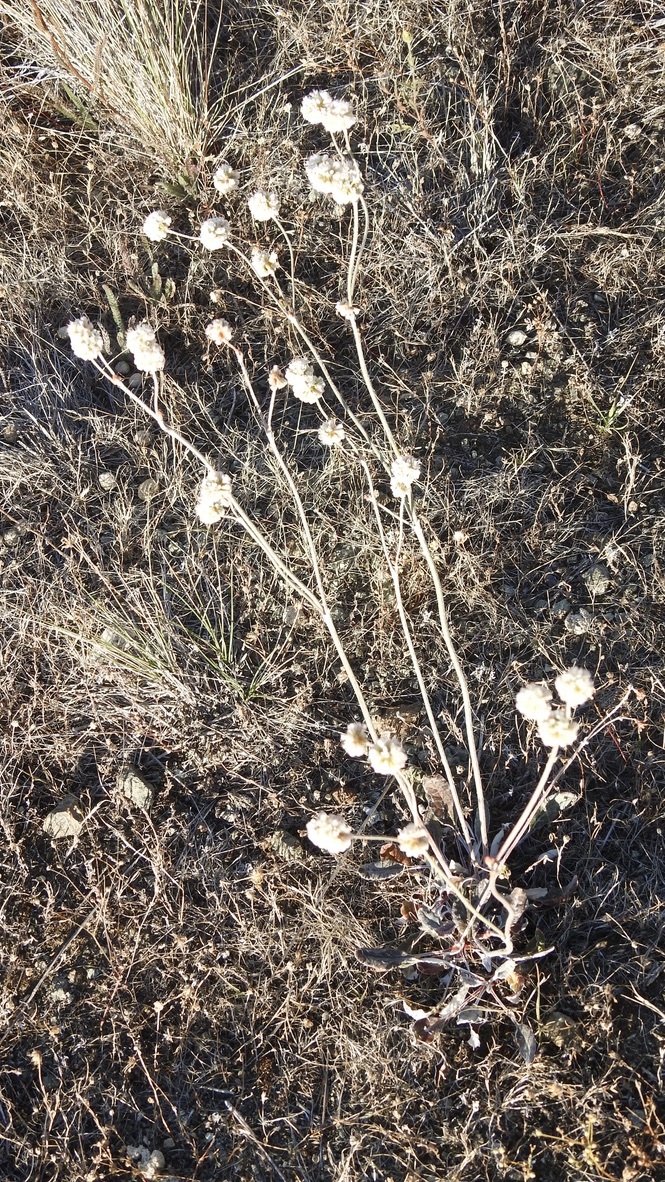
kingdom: Plantae
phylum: Tracheophyta
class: Magnoliopsida
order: Caryophyllales
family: Polygonaceae
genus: Eriogonum
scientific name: Eriogonum nudum
